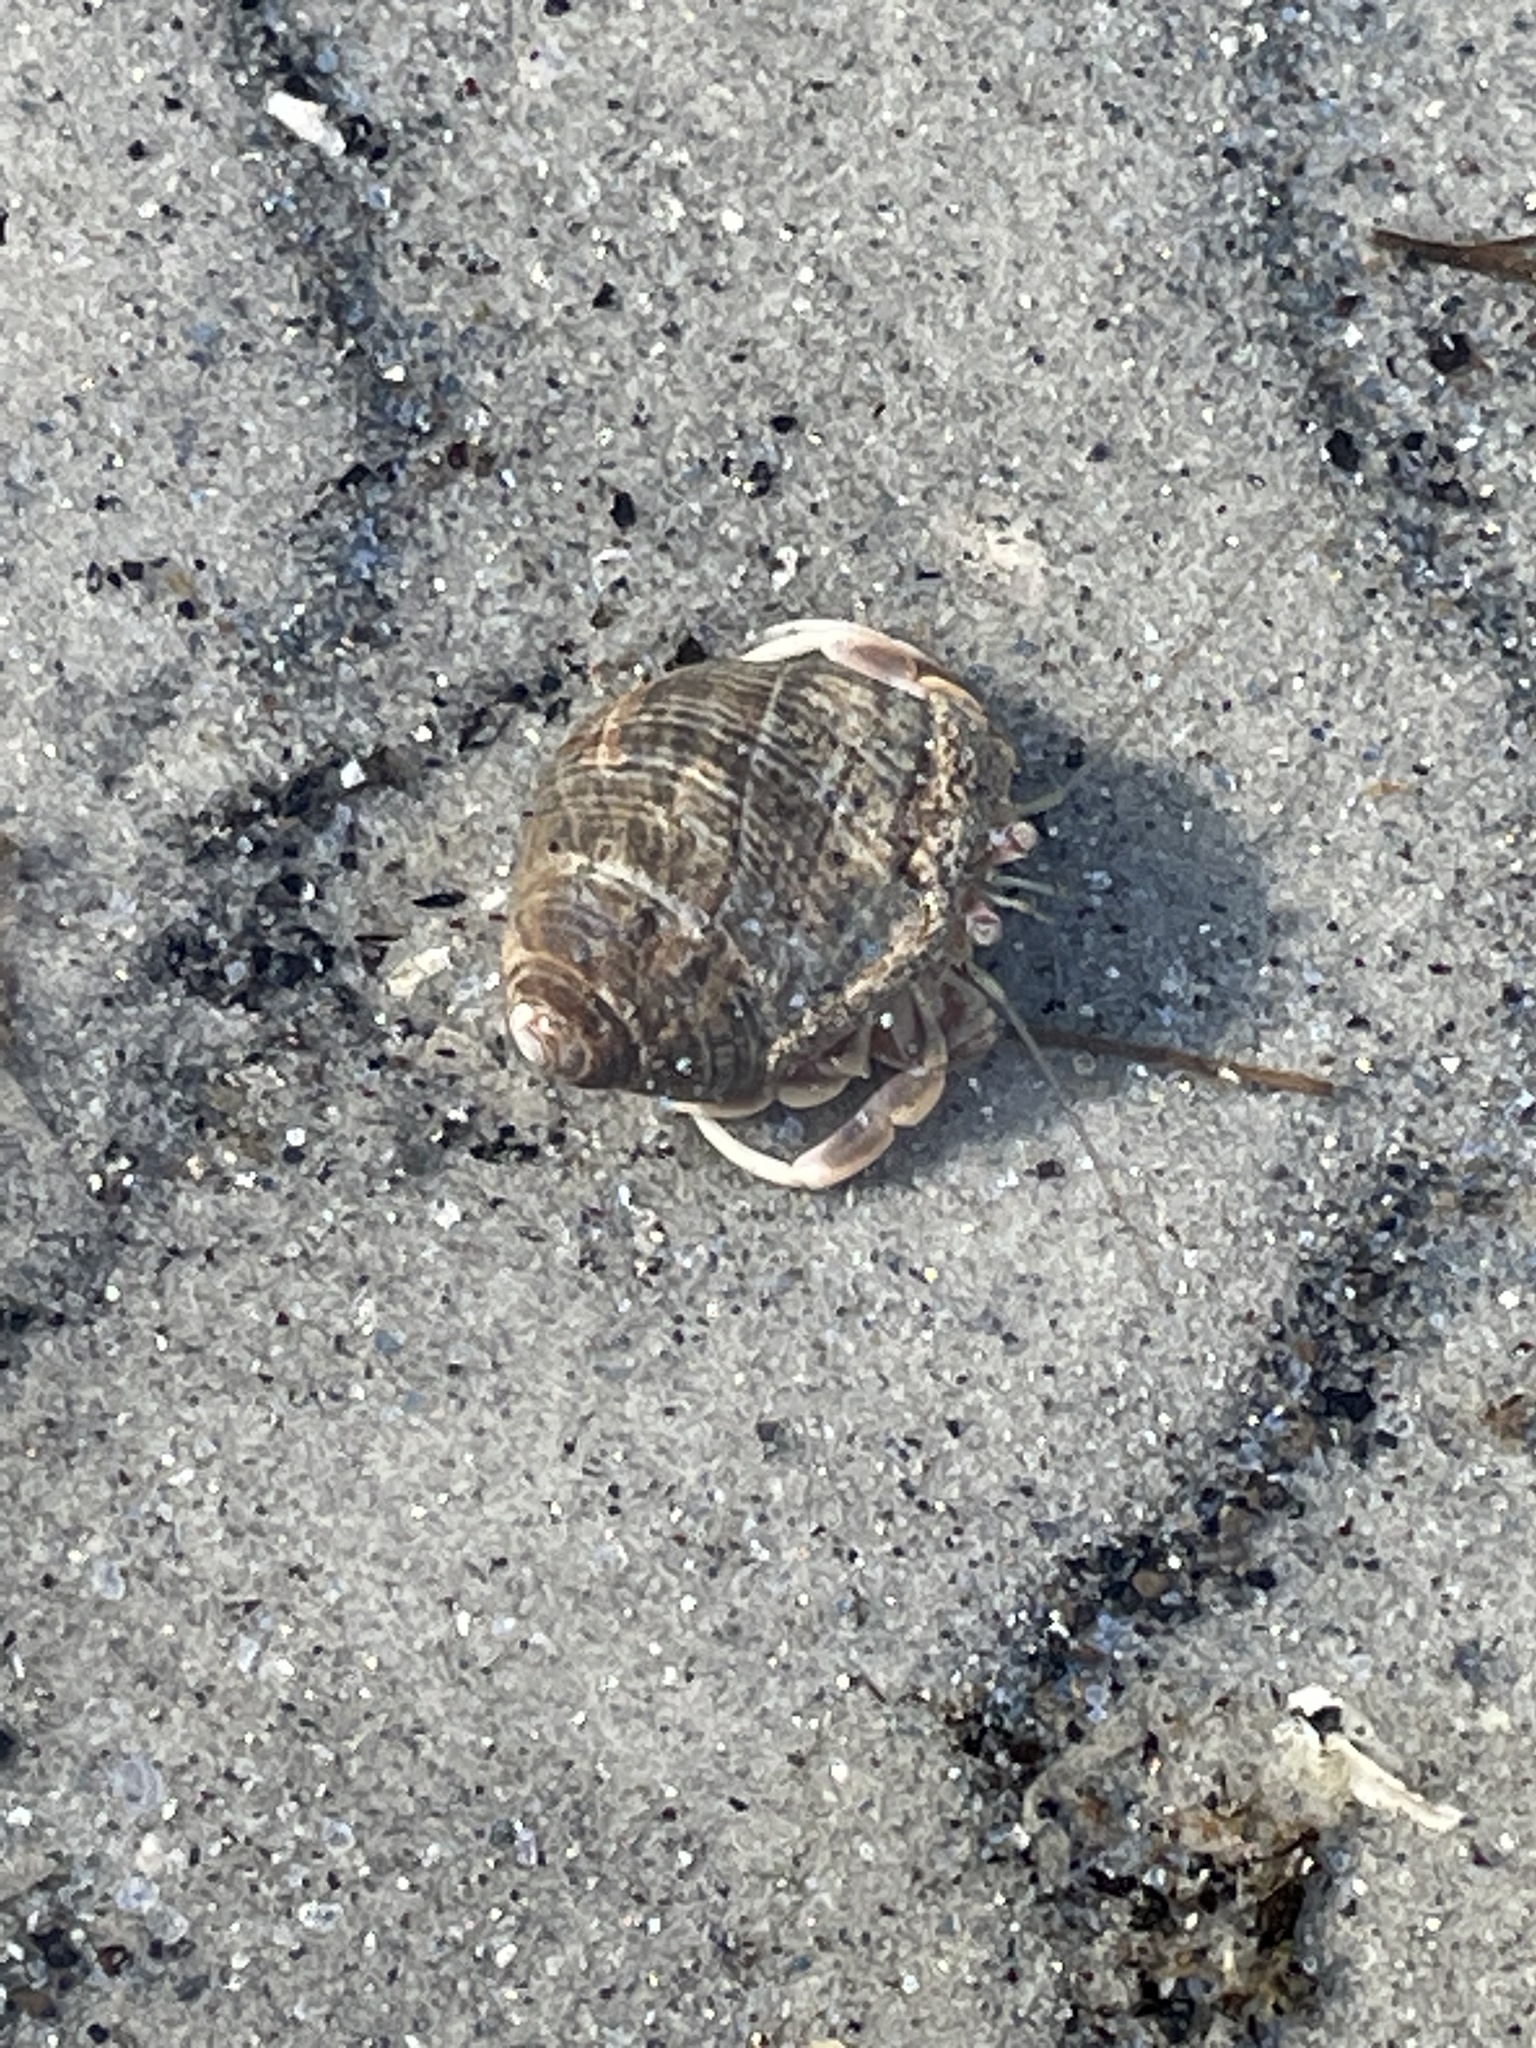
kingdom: Animalia
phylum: Arthropoda
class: Malacostraca
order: Decapoda
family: Paguridae
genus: Pagurus
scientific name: Pagurus longicarpus
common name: Long-armed hermit crab
